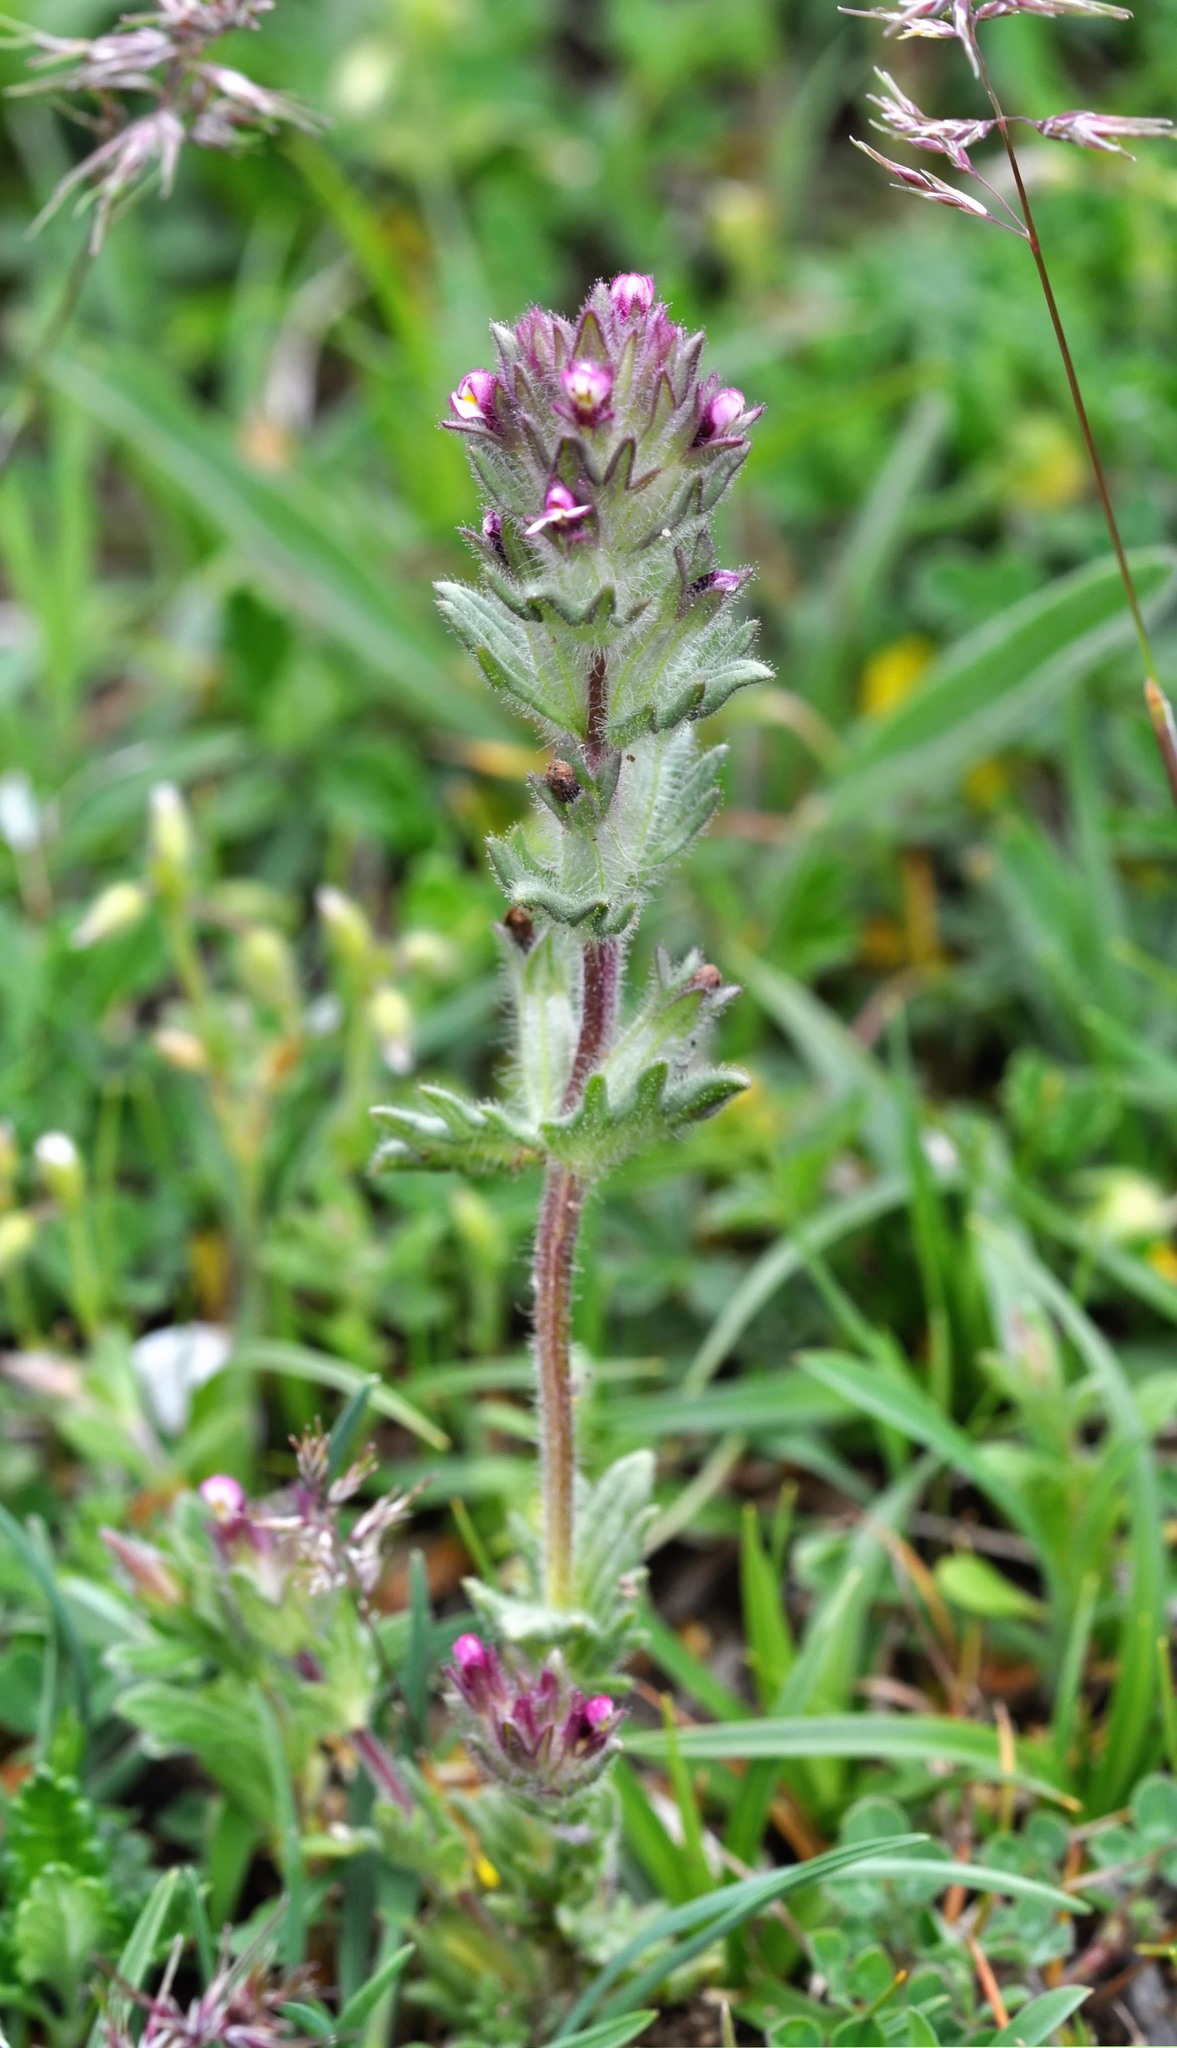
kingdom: Plantae
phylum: Tracheophyta
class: Magnoliopsida
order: Lamiales
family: Orobanchaceae
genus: Parentucellia
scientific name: Parentucellia latifolia
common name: Broadleaf glandweed
